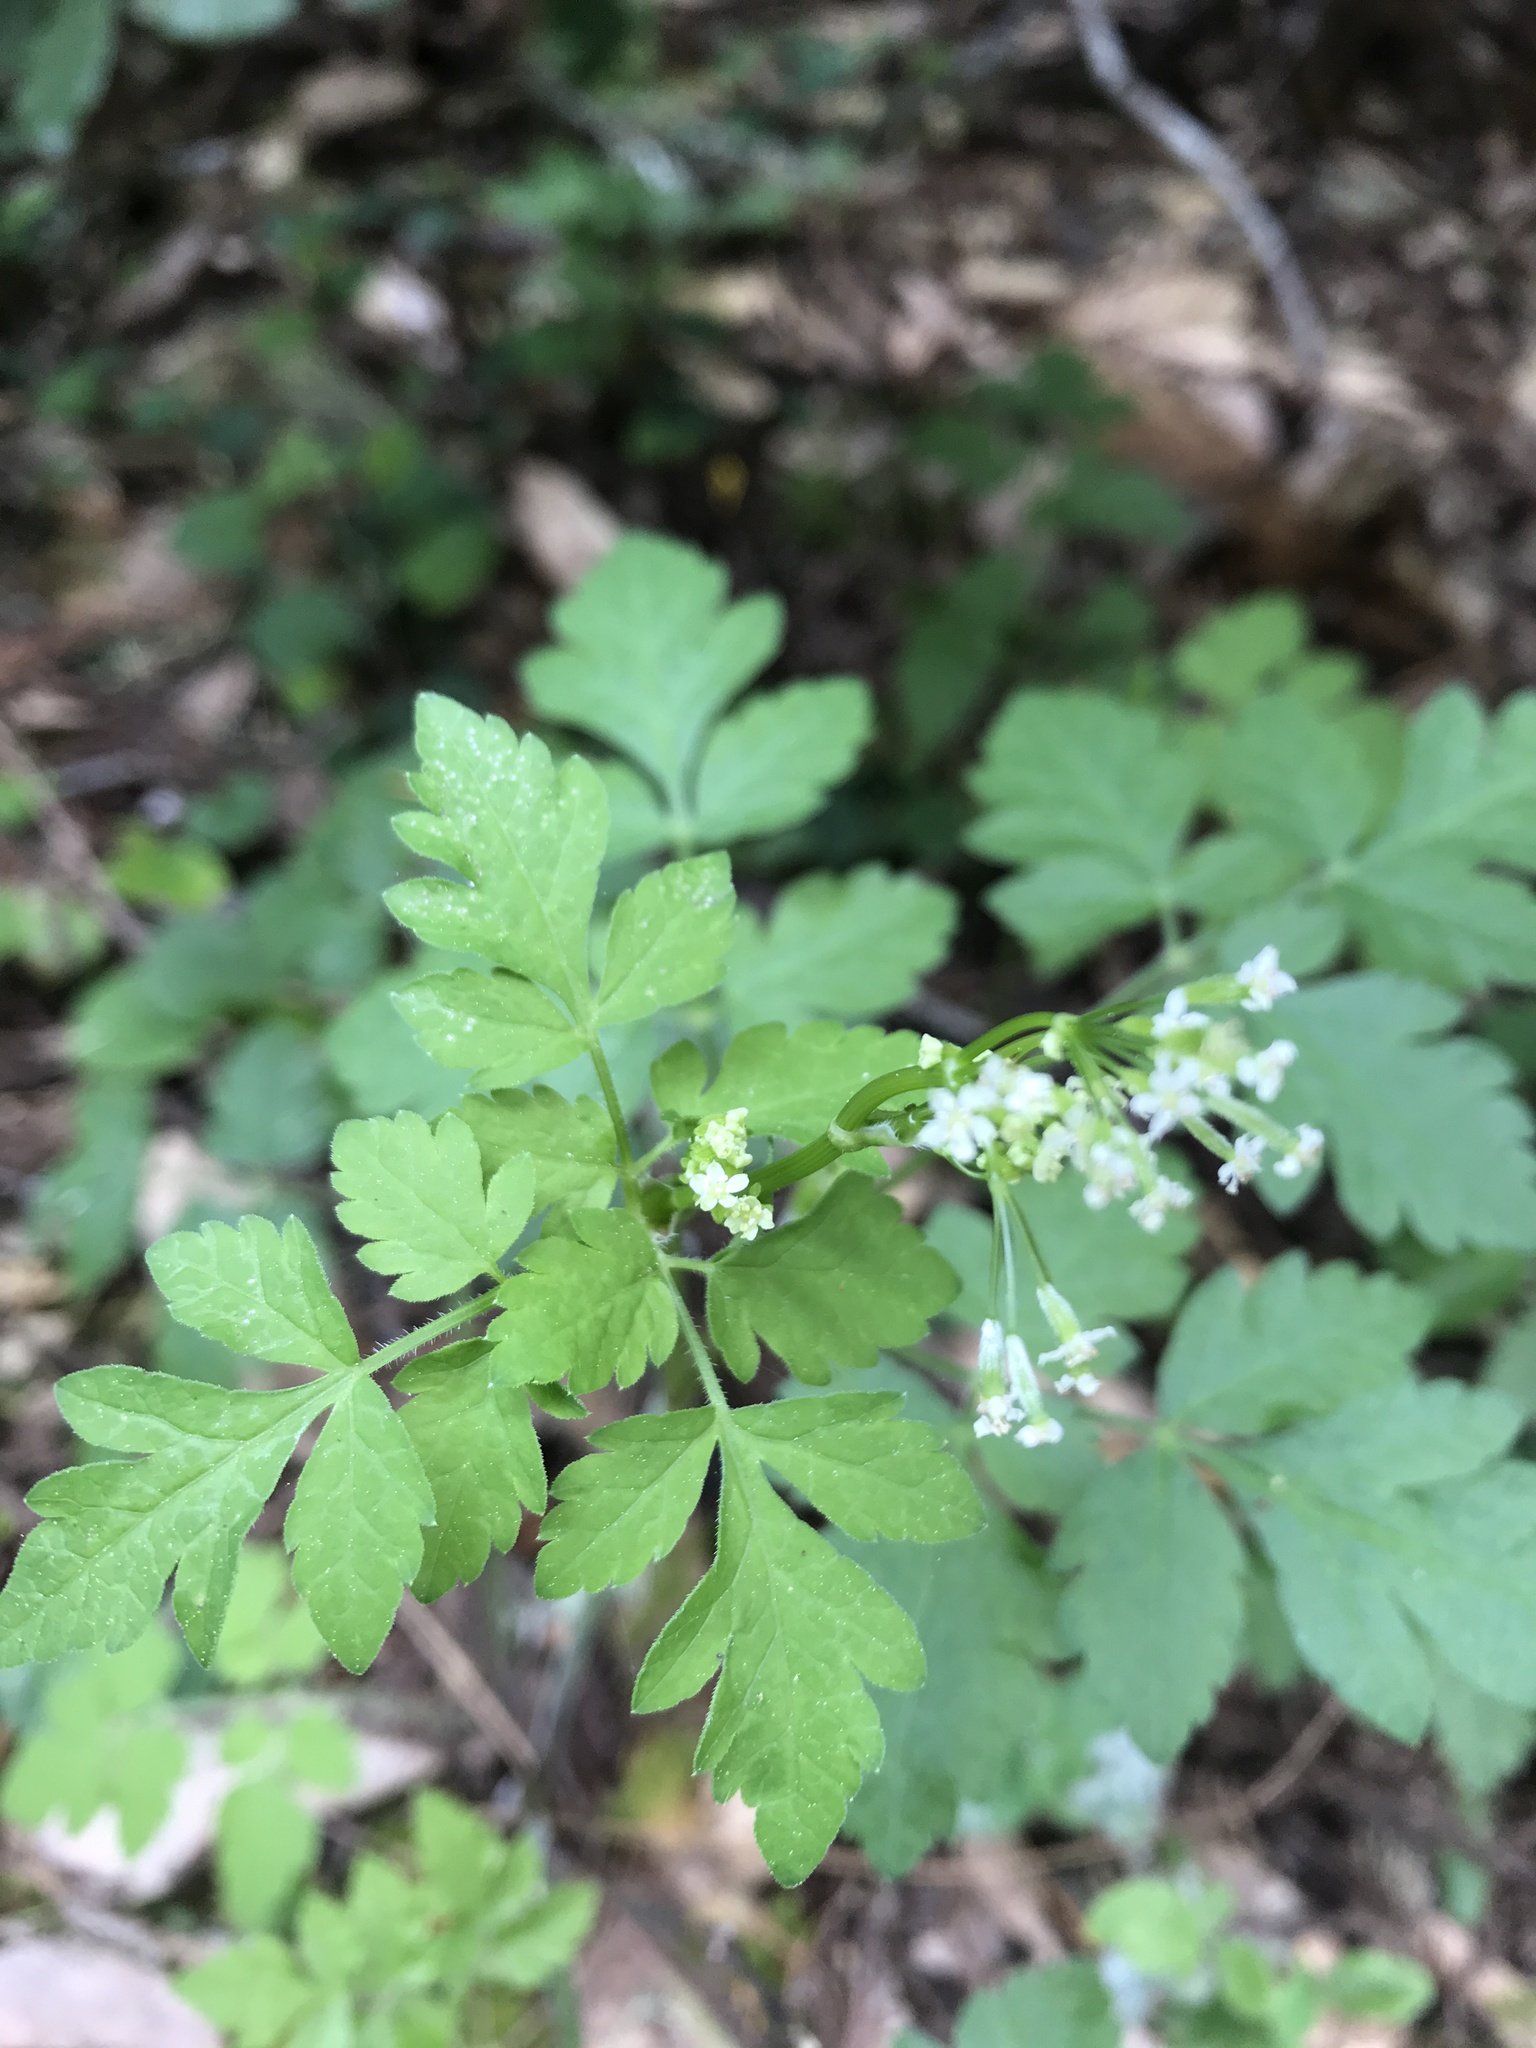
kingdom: Plantae
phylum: Tracheophyta
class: Magnoliopsida
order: Apiales
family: Apiaceae
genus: Osmorhiza
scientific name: Osmorhiza berteroi
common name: Mountain sweet cicely
